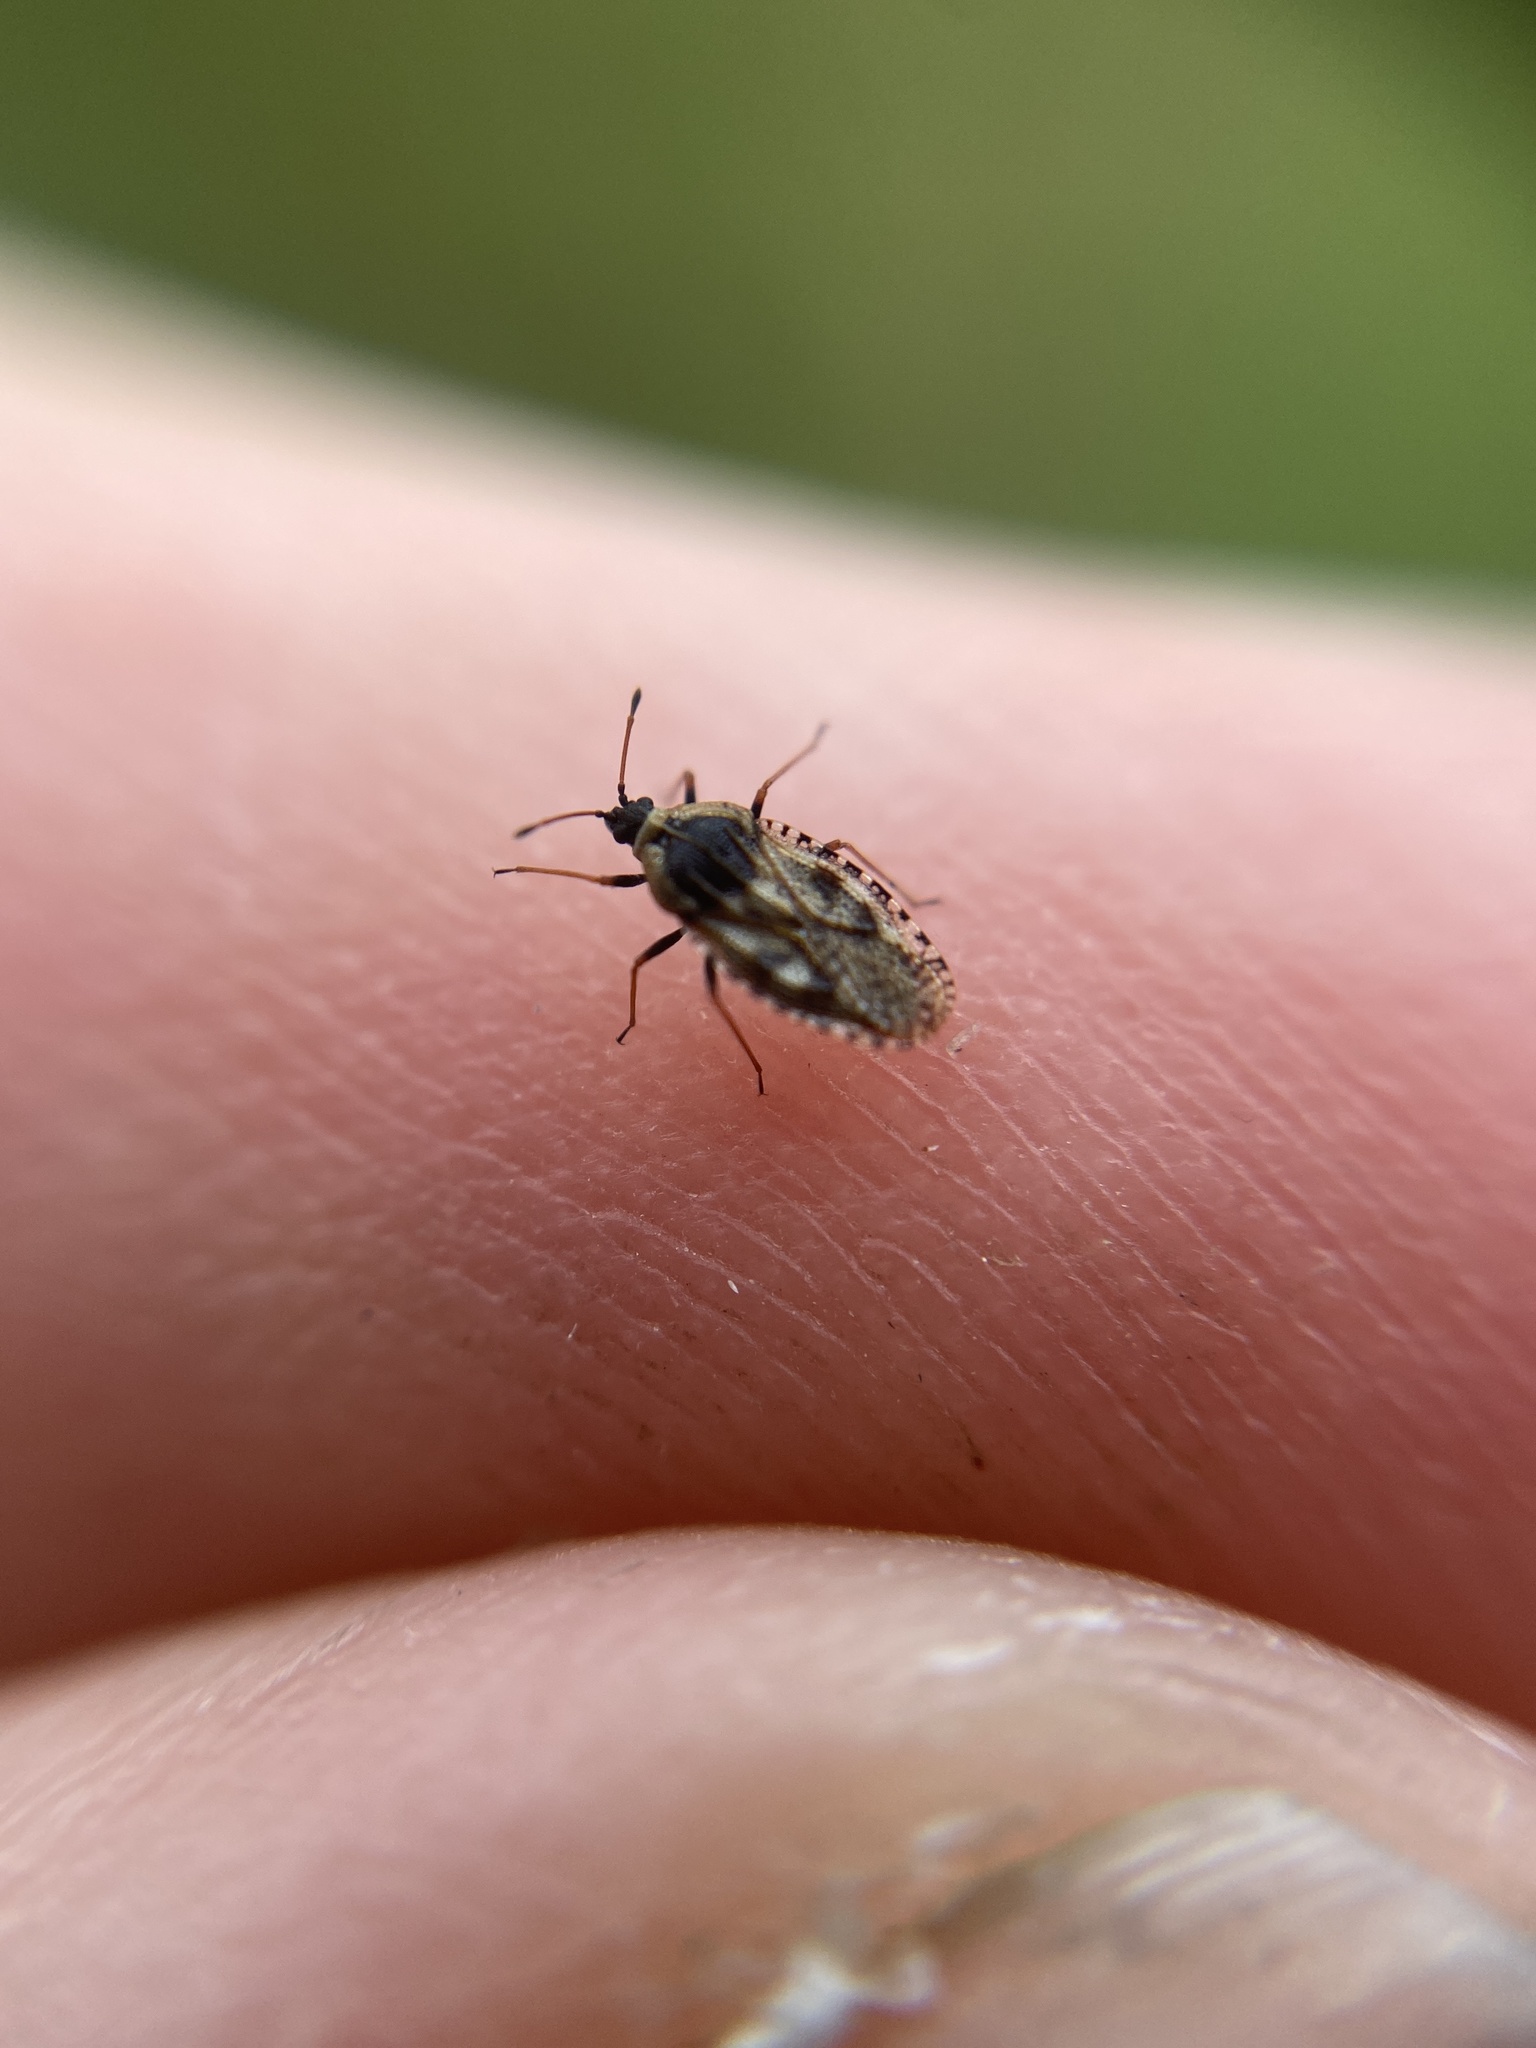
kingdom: Animalia
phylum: Arthropoda
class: Insecta
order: Hemiptera
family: Tingidae
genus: Dictyla
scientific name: Dictyla echii
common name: Lace bug
